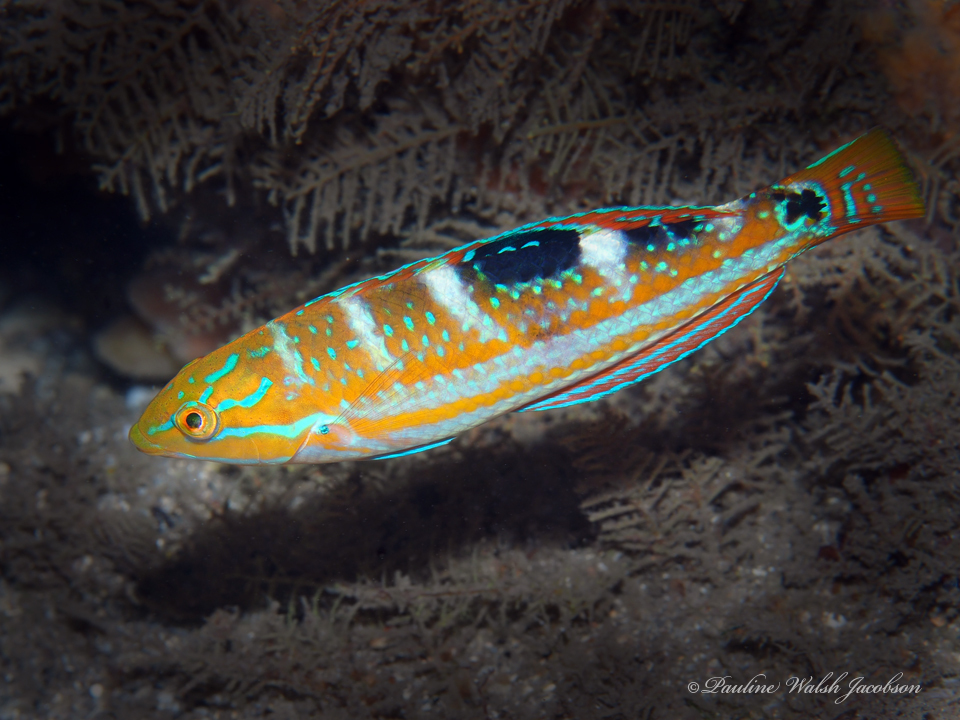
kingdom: Animalia
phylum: Chordata
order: Perciformes
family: Labridae
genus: Halichoeres
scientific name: Halichoeres radiatus
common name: Puddingwife
